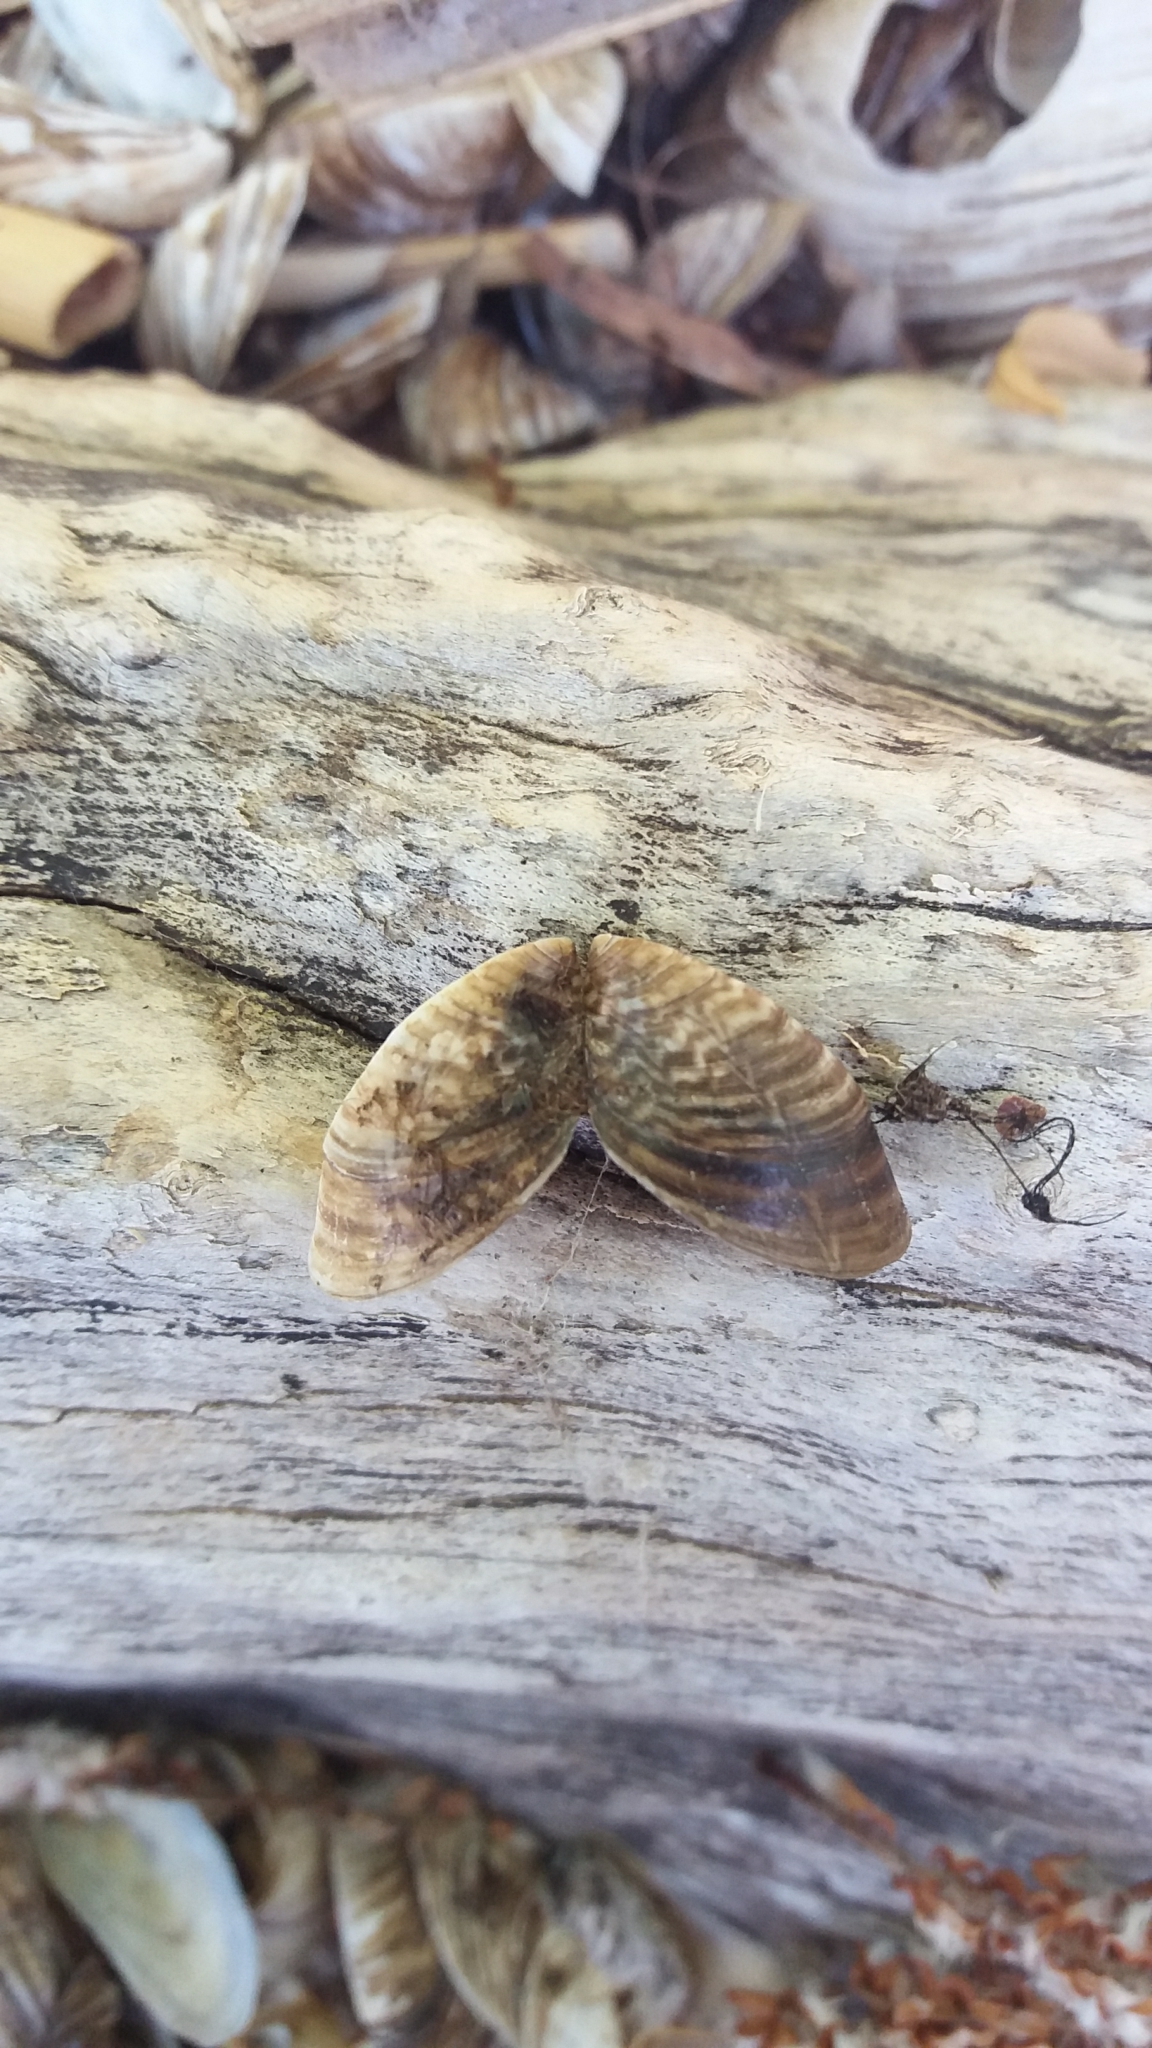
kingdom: Animalia
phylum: Mollusca
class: Bivalvia
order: Myida
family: Dreissenidae
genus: Dreissena
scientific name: Dreissena polymorpha
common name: Zebra mussel
